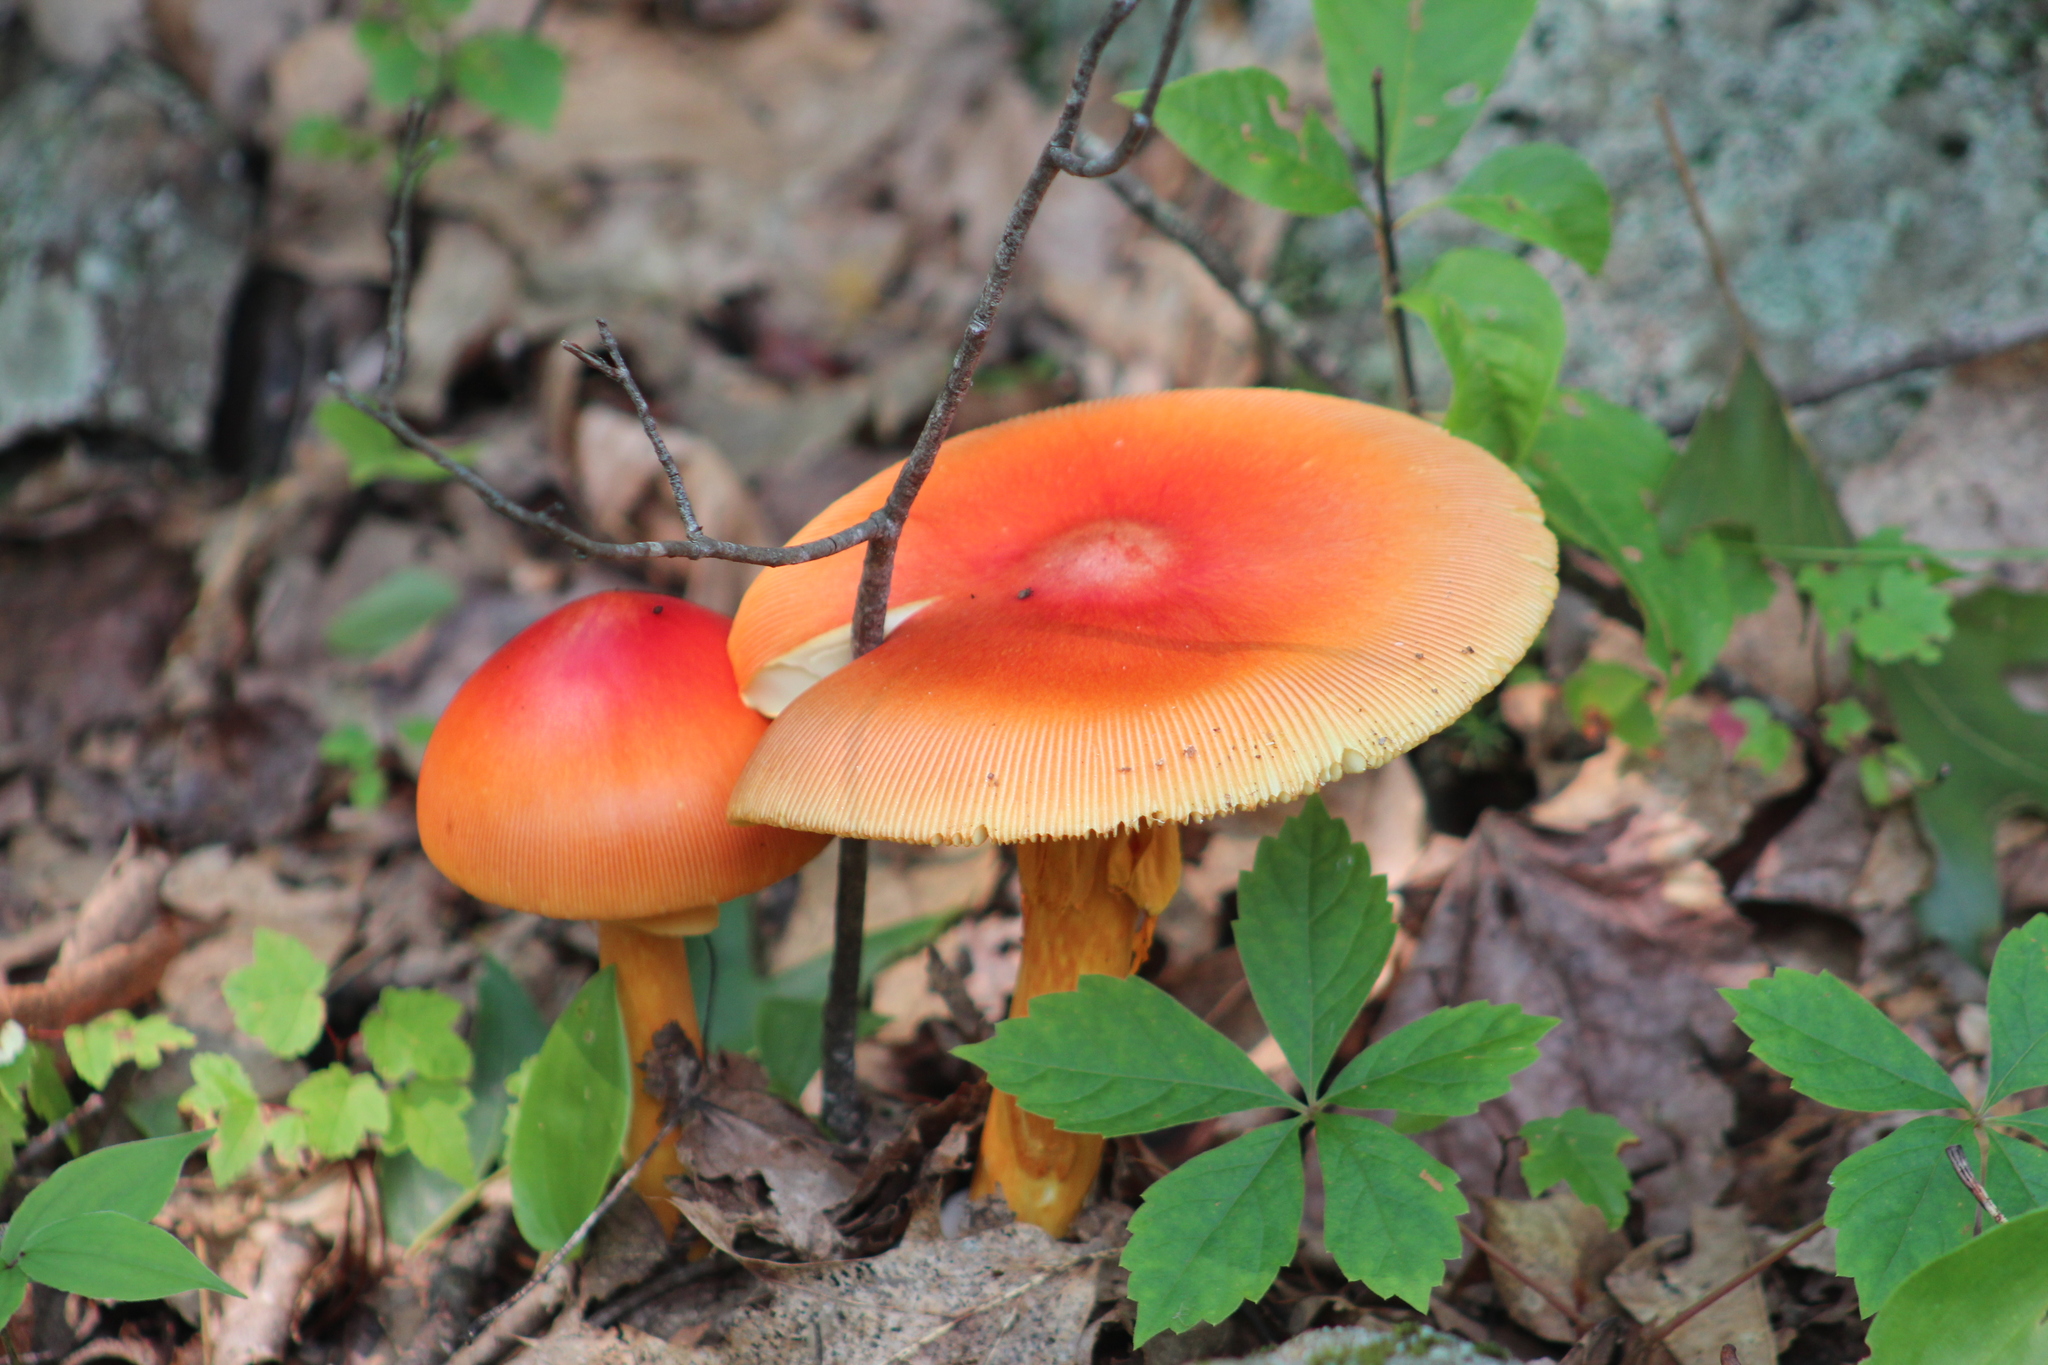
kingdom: Fungi
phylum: Basidiomycota
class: Agaricomycetes
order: Agaricales
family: Amanitaceae
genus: Amanita
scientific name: Amanita jacksonii
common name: Jackson's slender caesar
